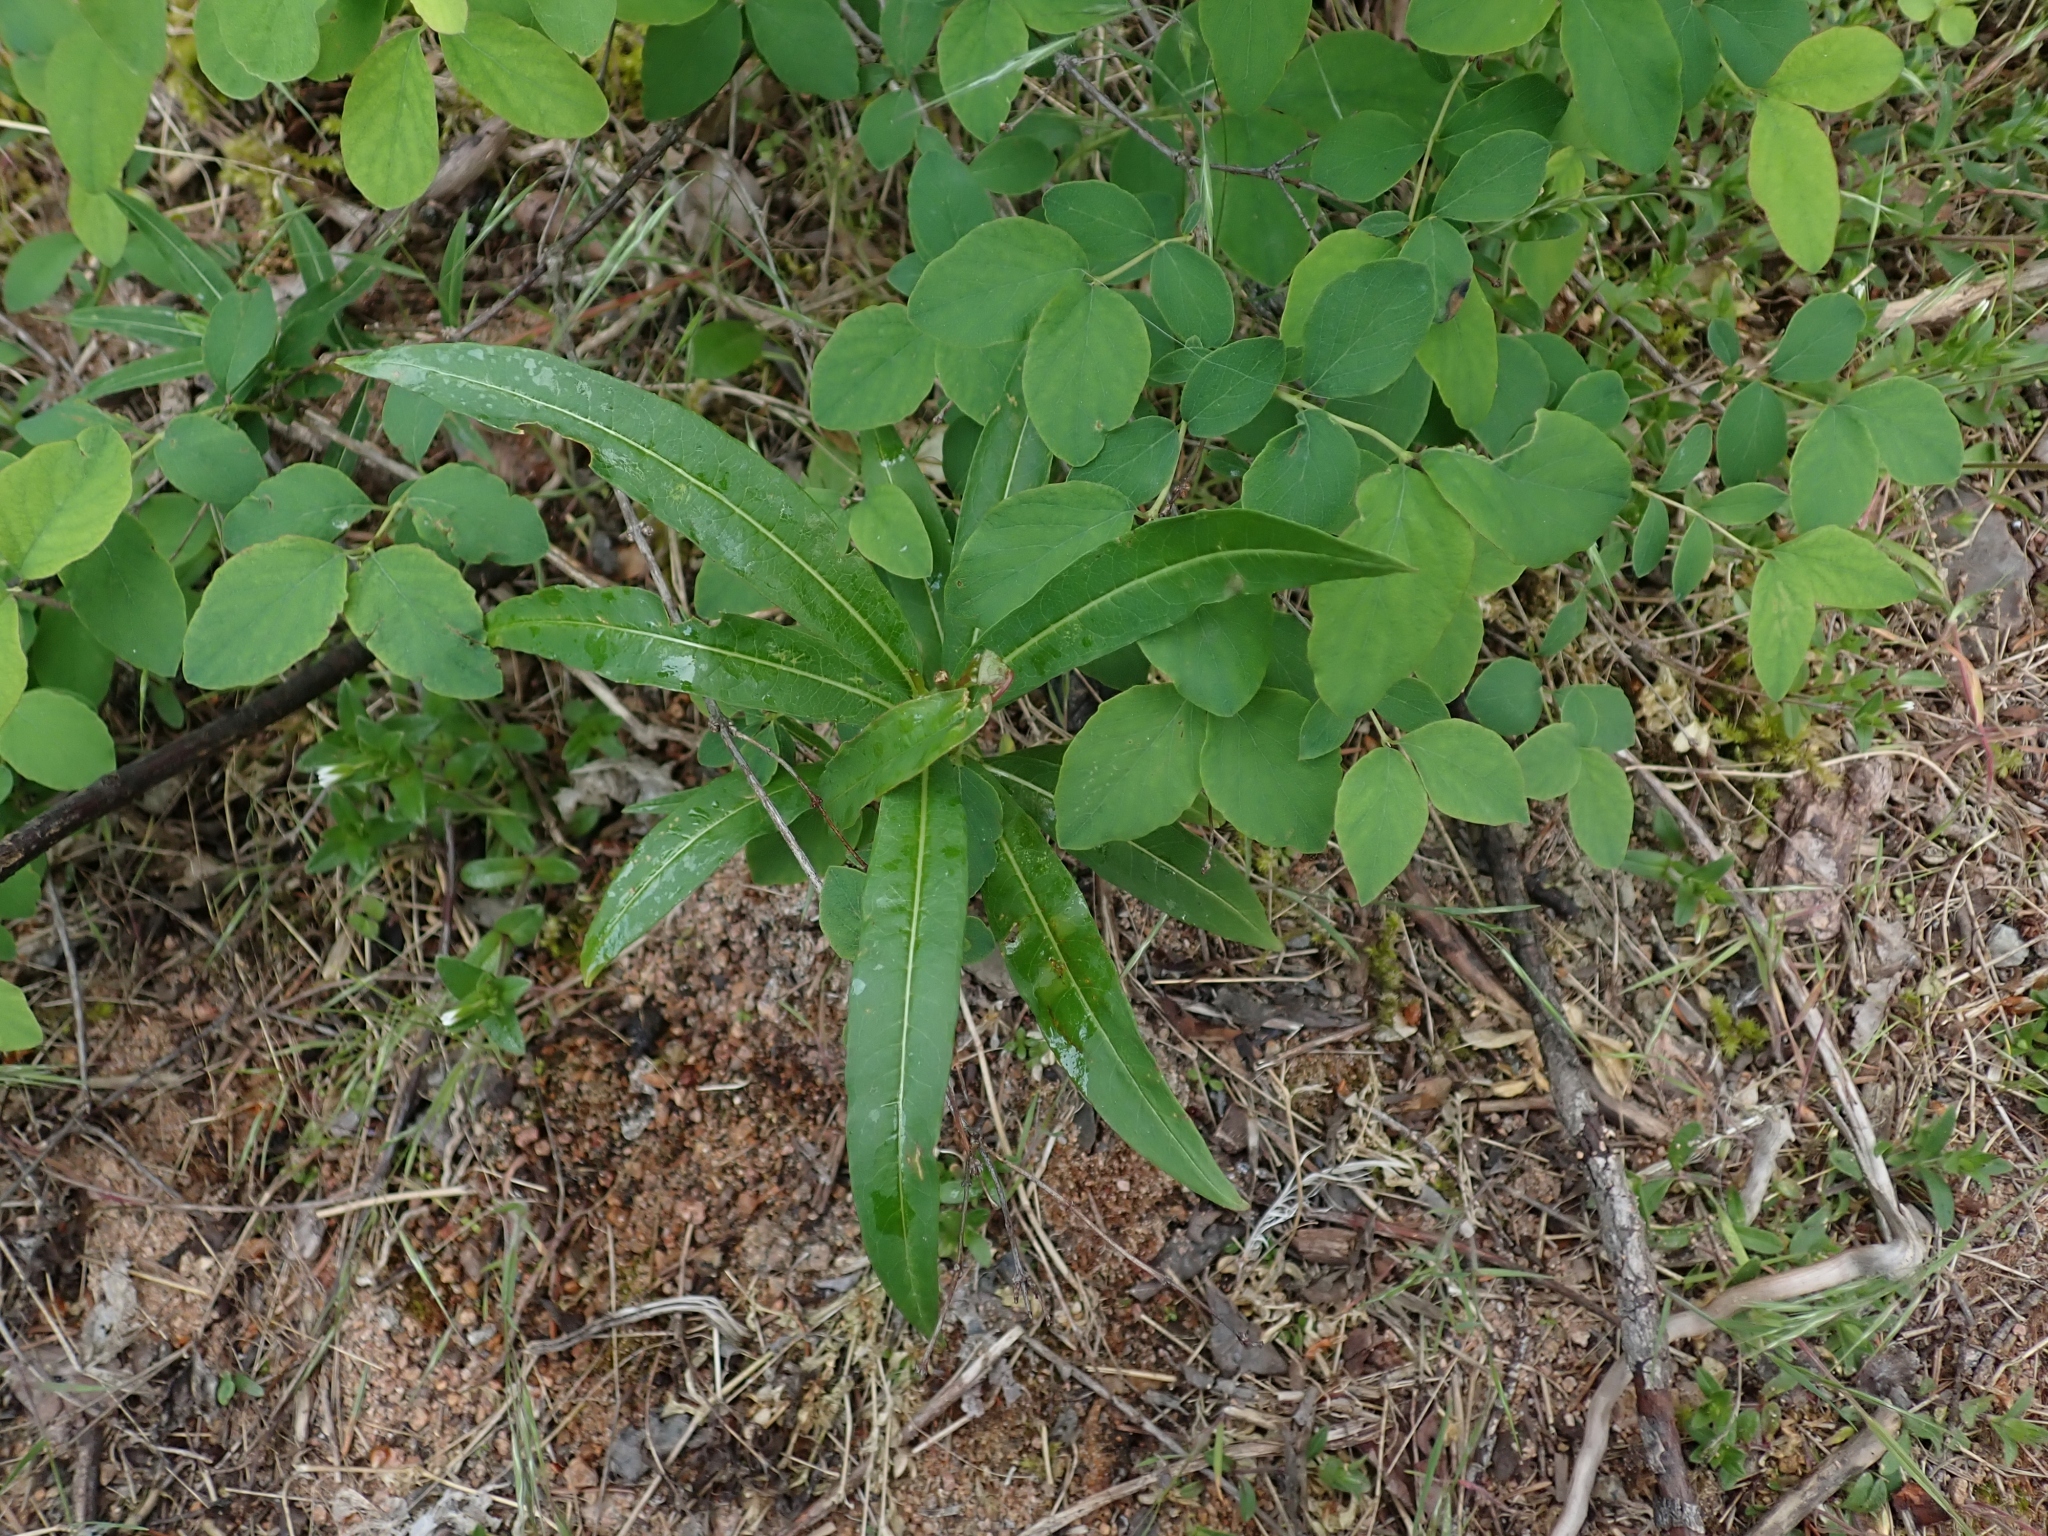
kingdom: Plantae
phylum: Tracheophyta
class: Magnoliopsida
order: Myrtales
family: Onagraceae
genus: Chamaenerion
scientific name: Chamaenerion angustifolium
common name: Fireweed
